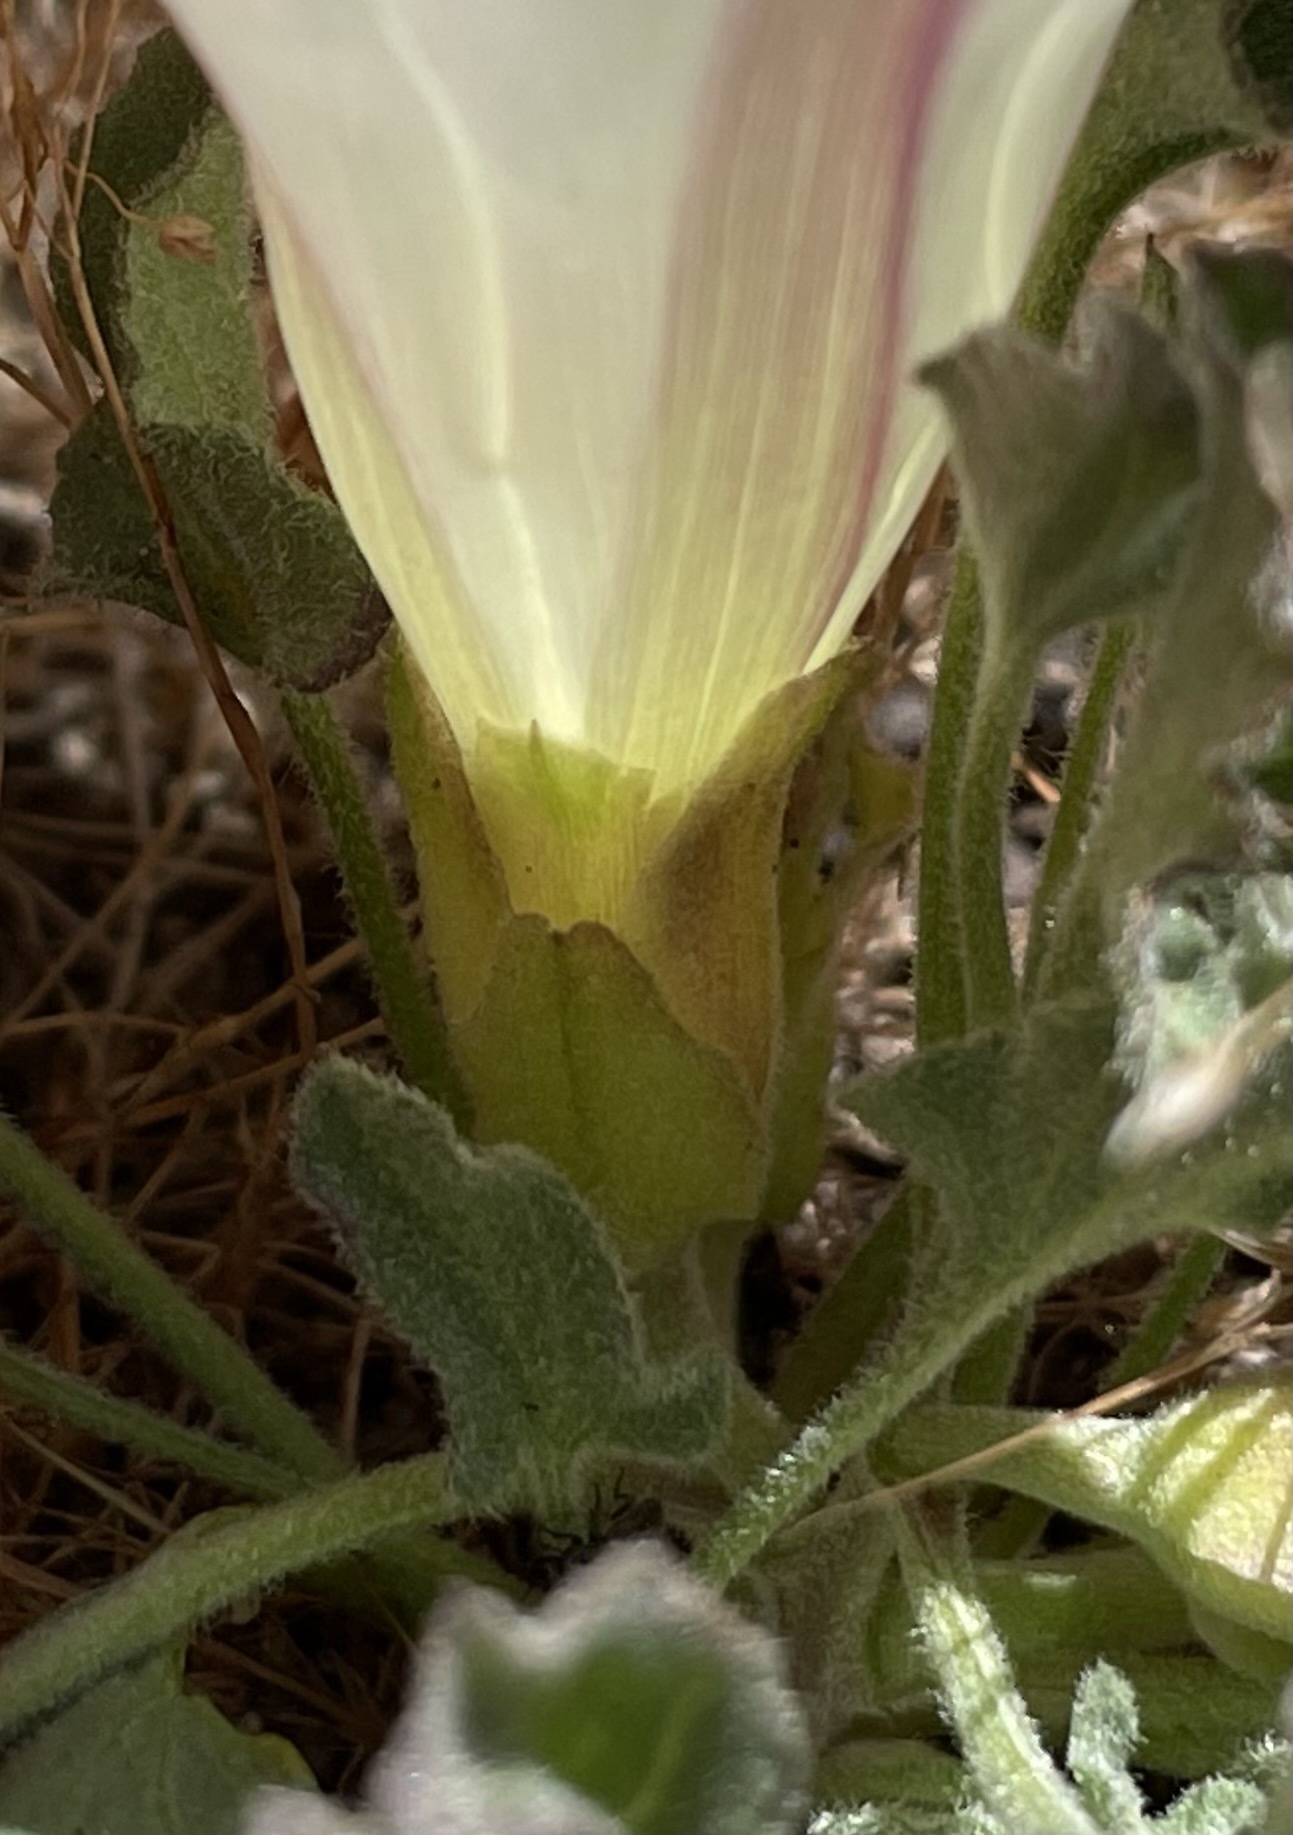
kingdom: Plantae
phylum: Tracheophyta
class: Magnoliopsida
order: Solanales
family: Convolvulaceae
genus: Calystegia
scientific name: Calystegia subacaulis
